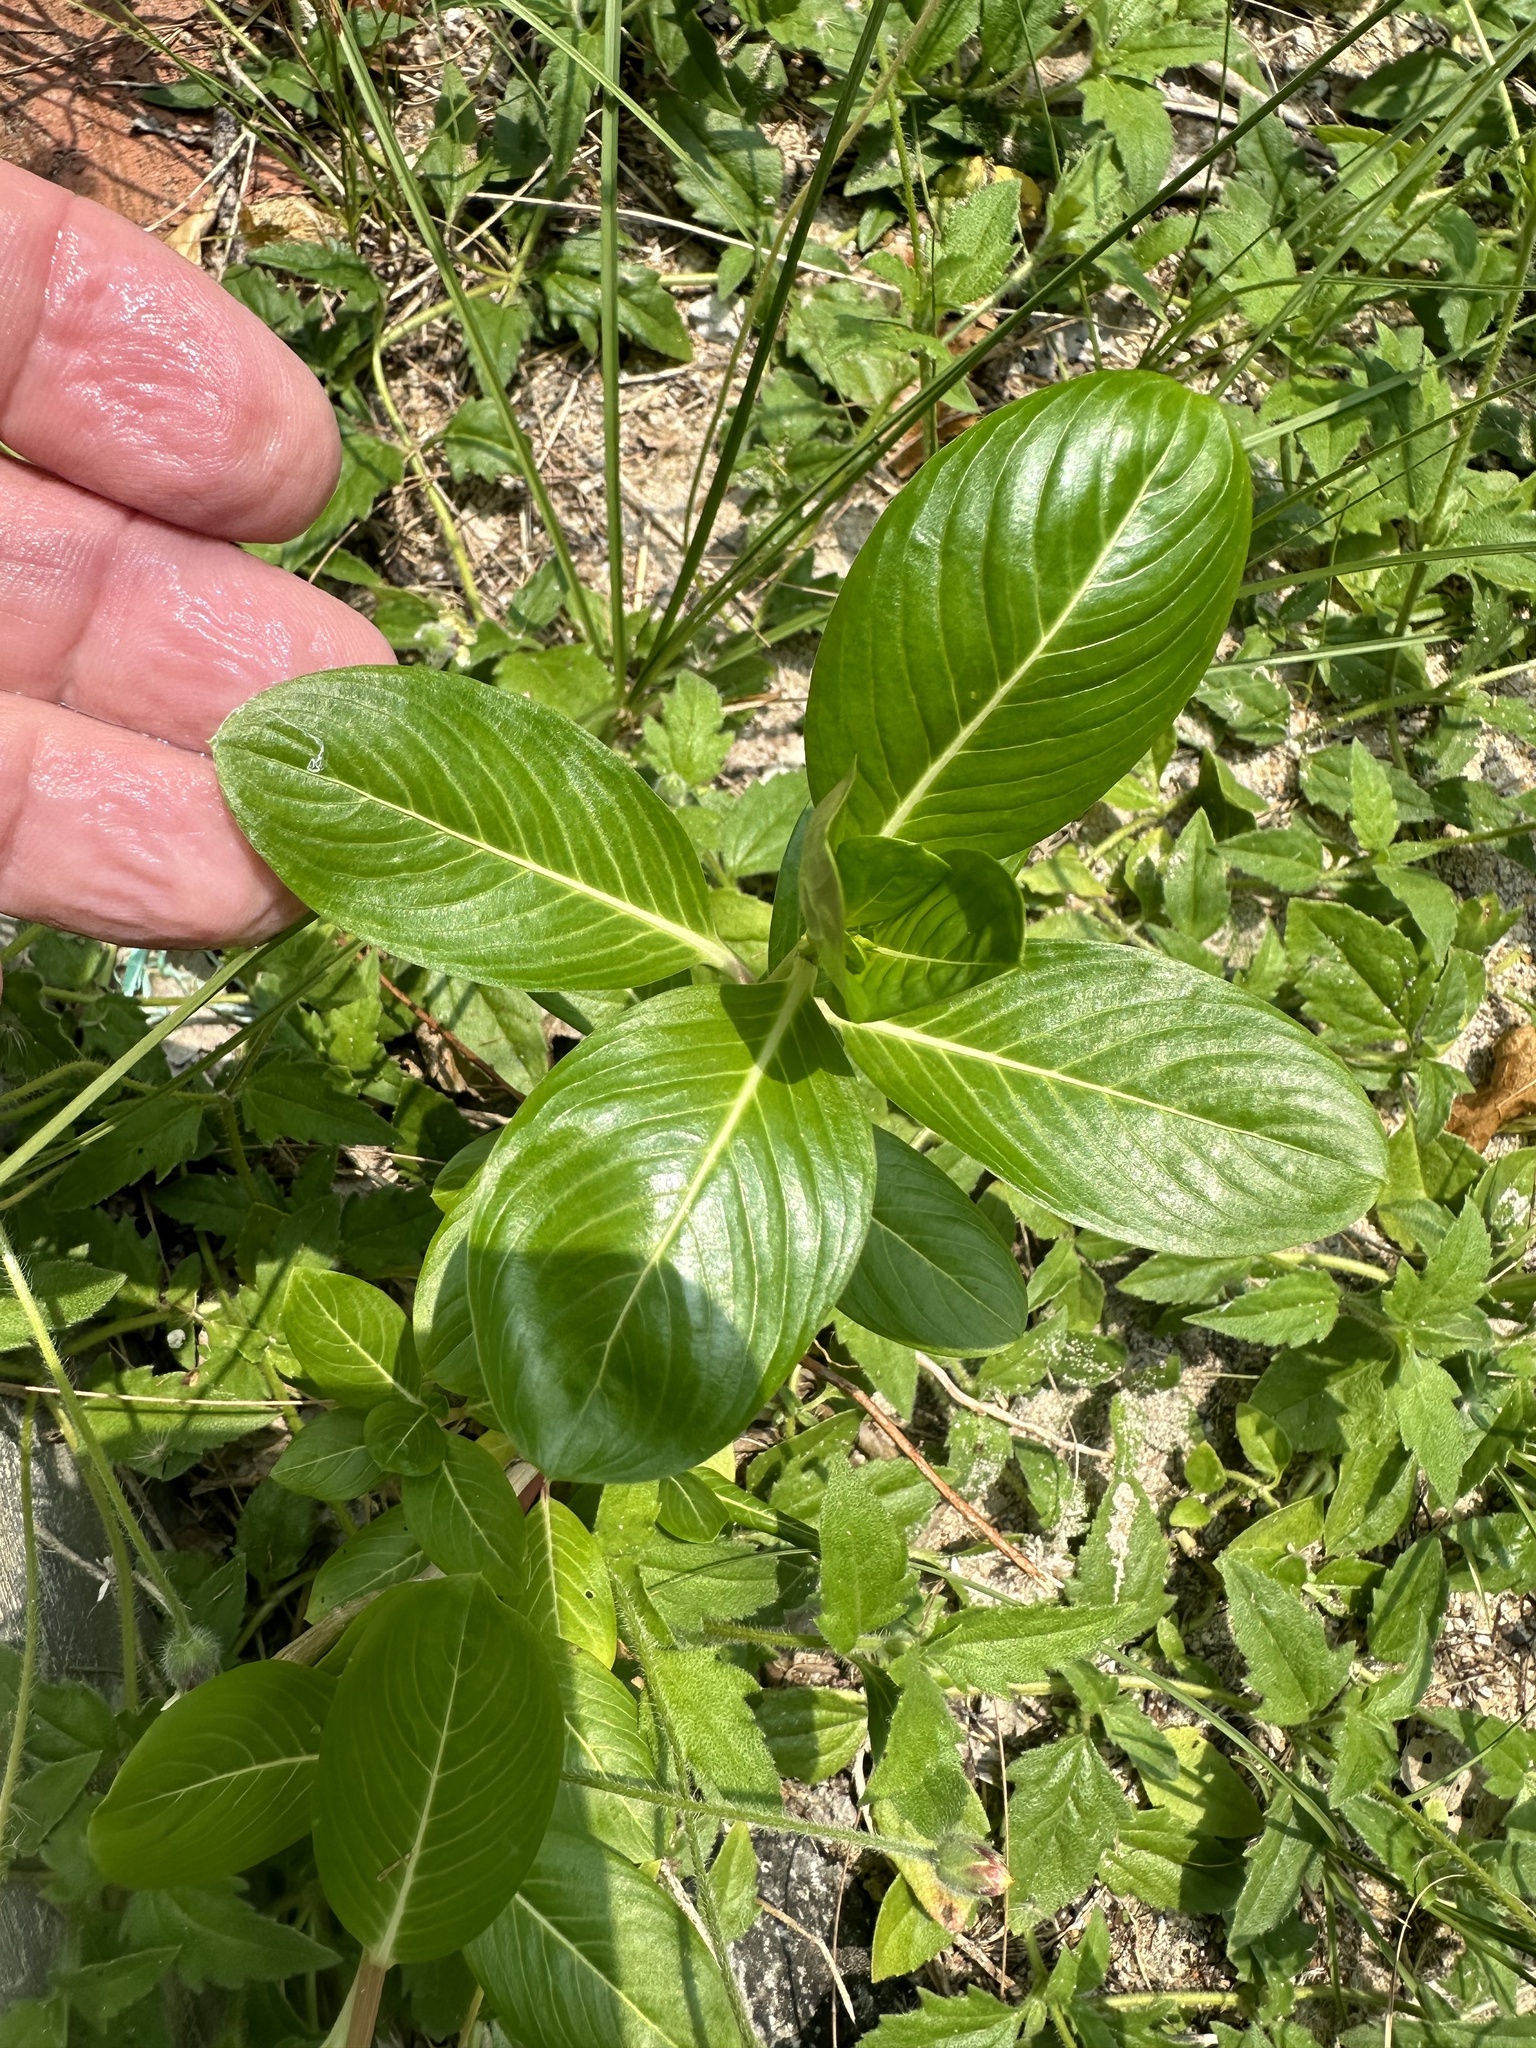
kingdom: Plantae
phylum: Tracheophyta
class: Magnoliopsida
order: Gentianales
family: Apocynaceae
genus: Catharanthus
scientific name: Catharanthus roseus
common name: Madagascar periwinkle
